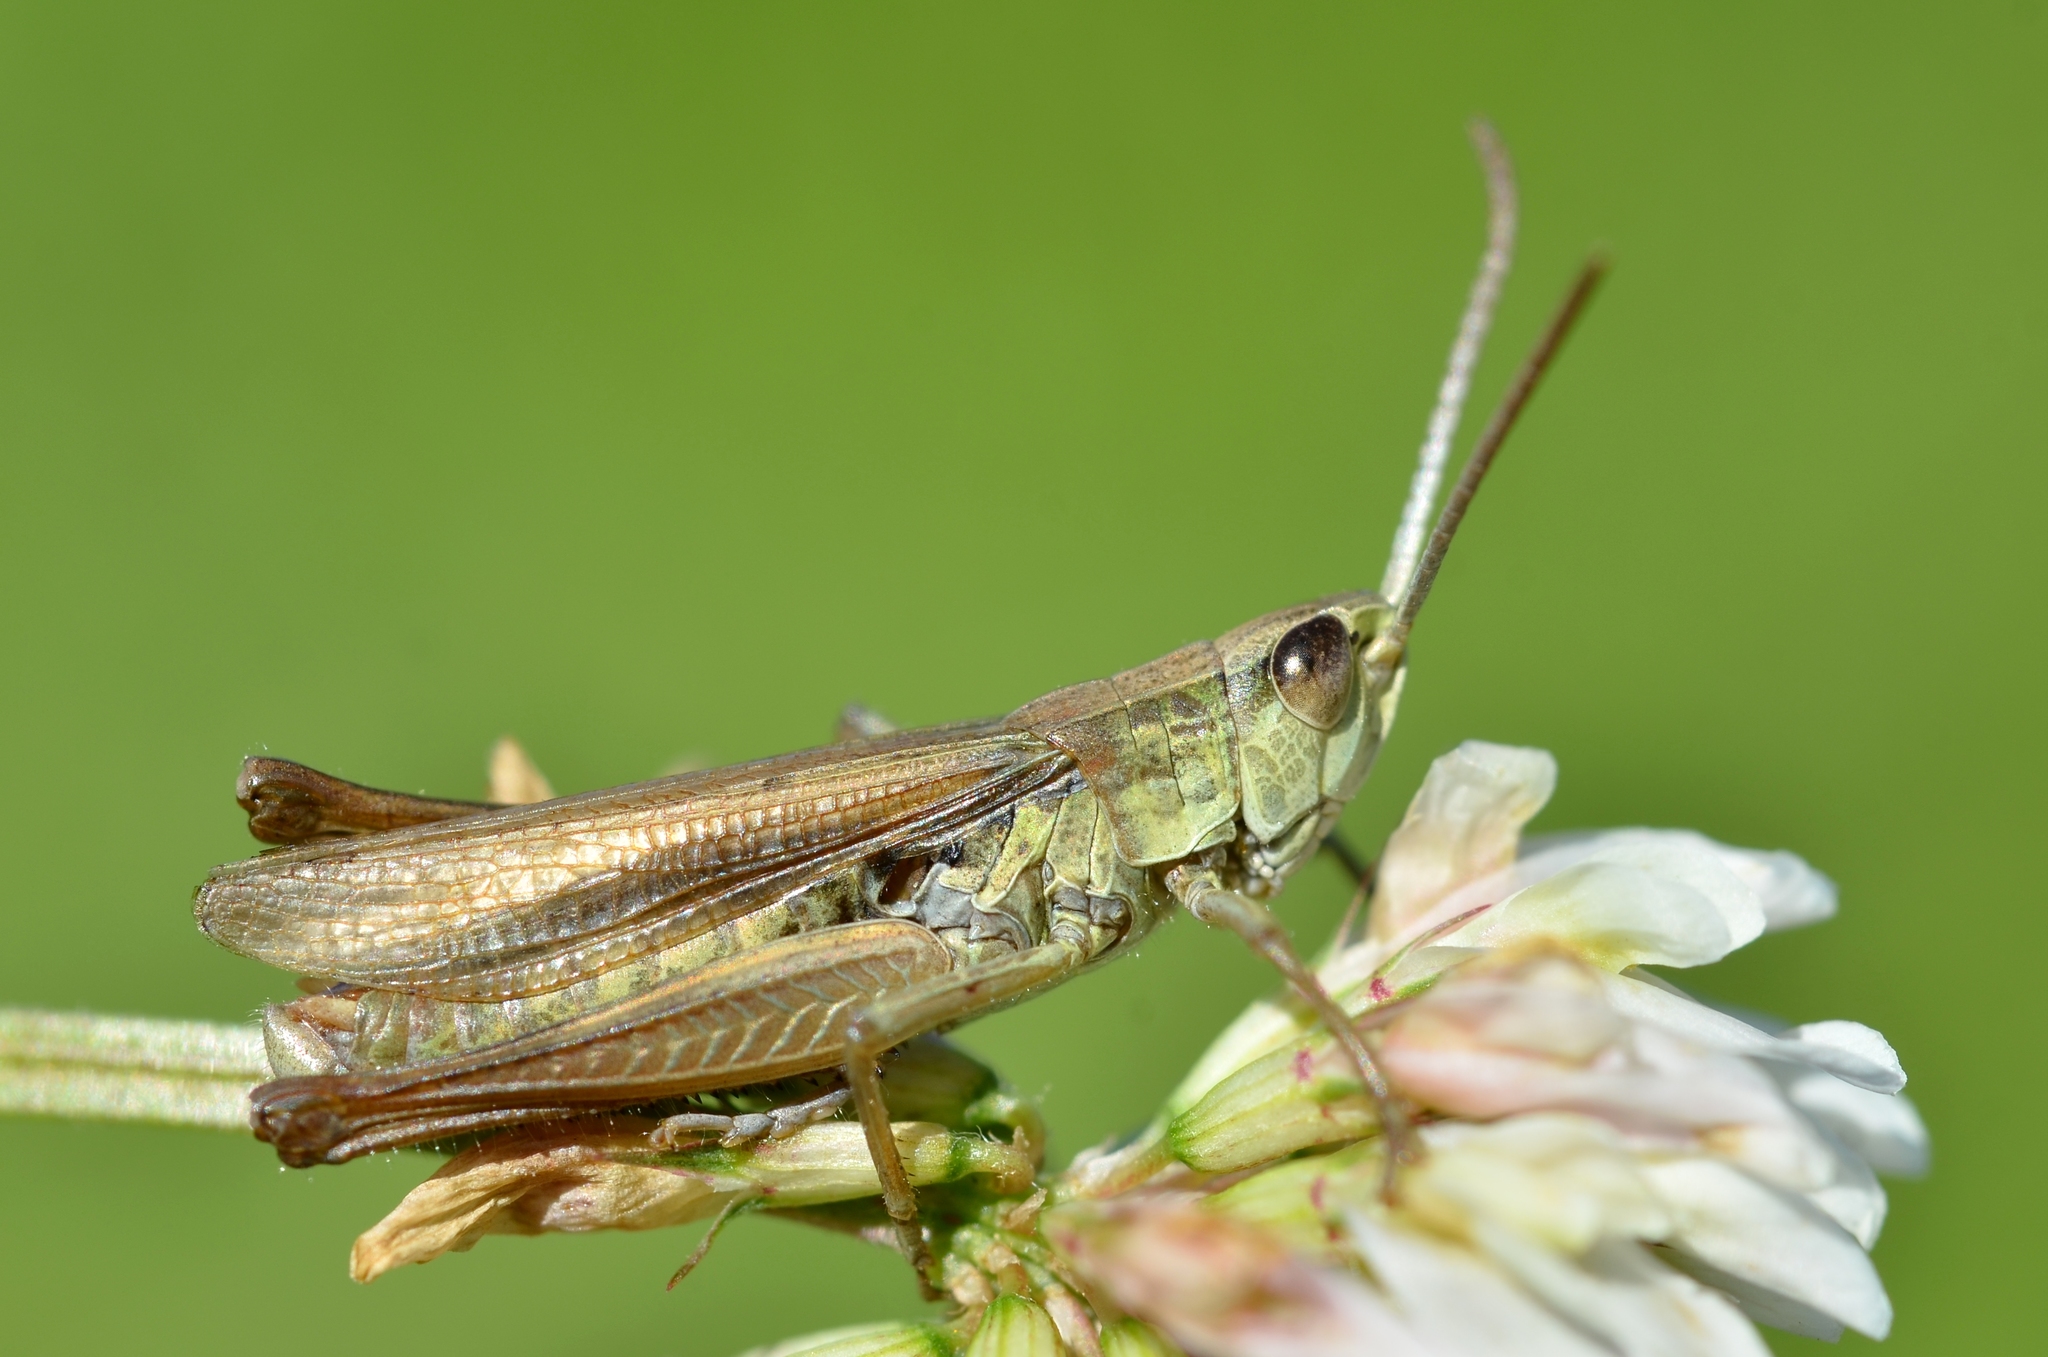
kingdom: Animalia
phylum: Arthropoda
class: Insecta
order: Orthoptera
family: Acrididae
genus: Chorthippus
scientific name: Chorthippus albomarginatus
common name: Lesser marsh grasshopper
